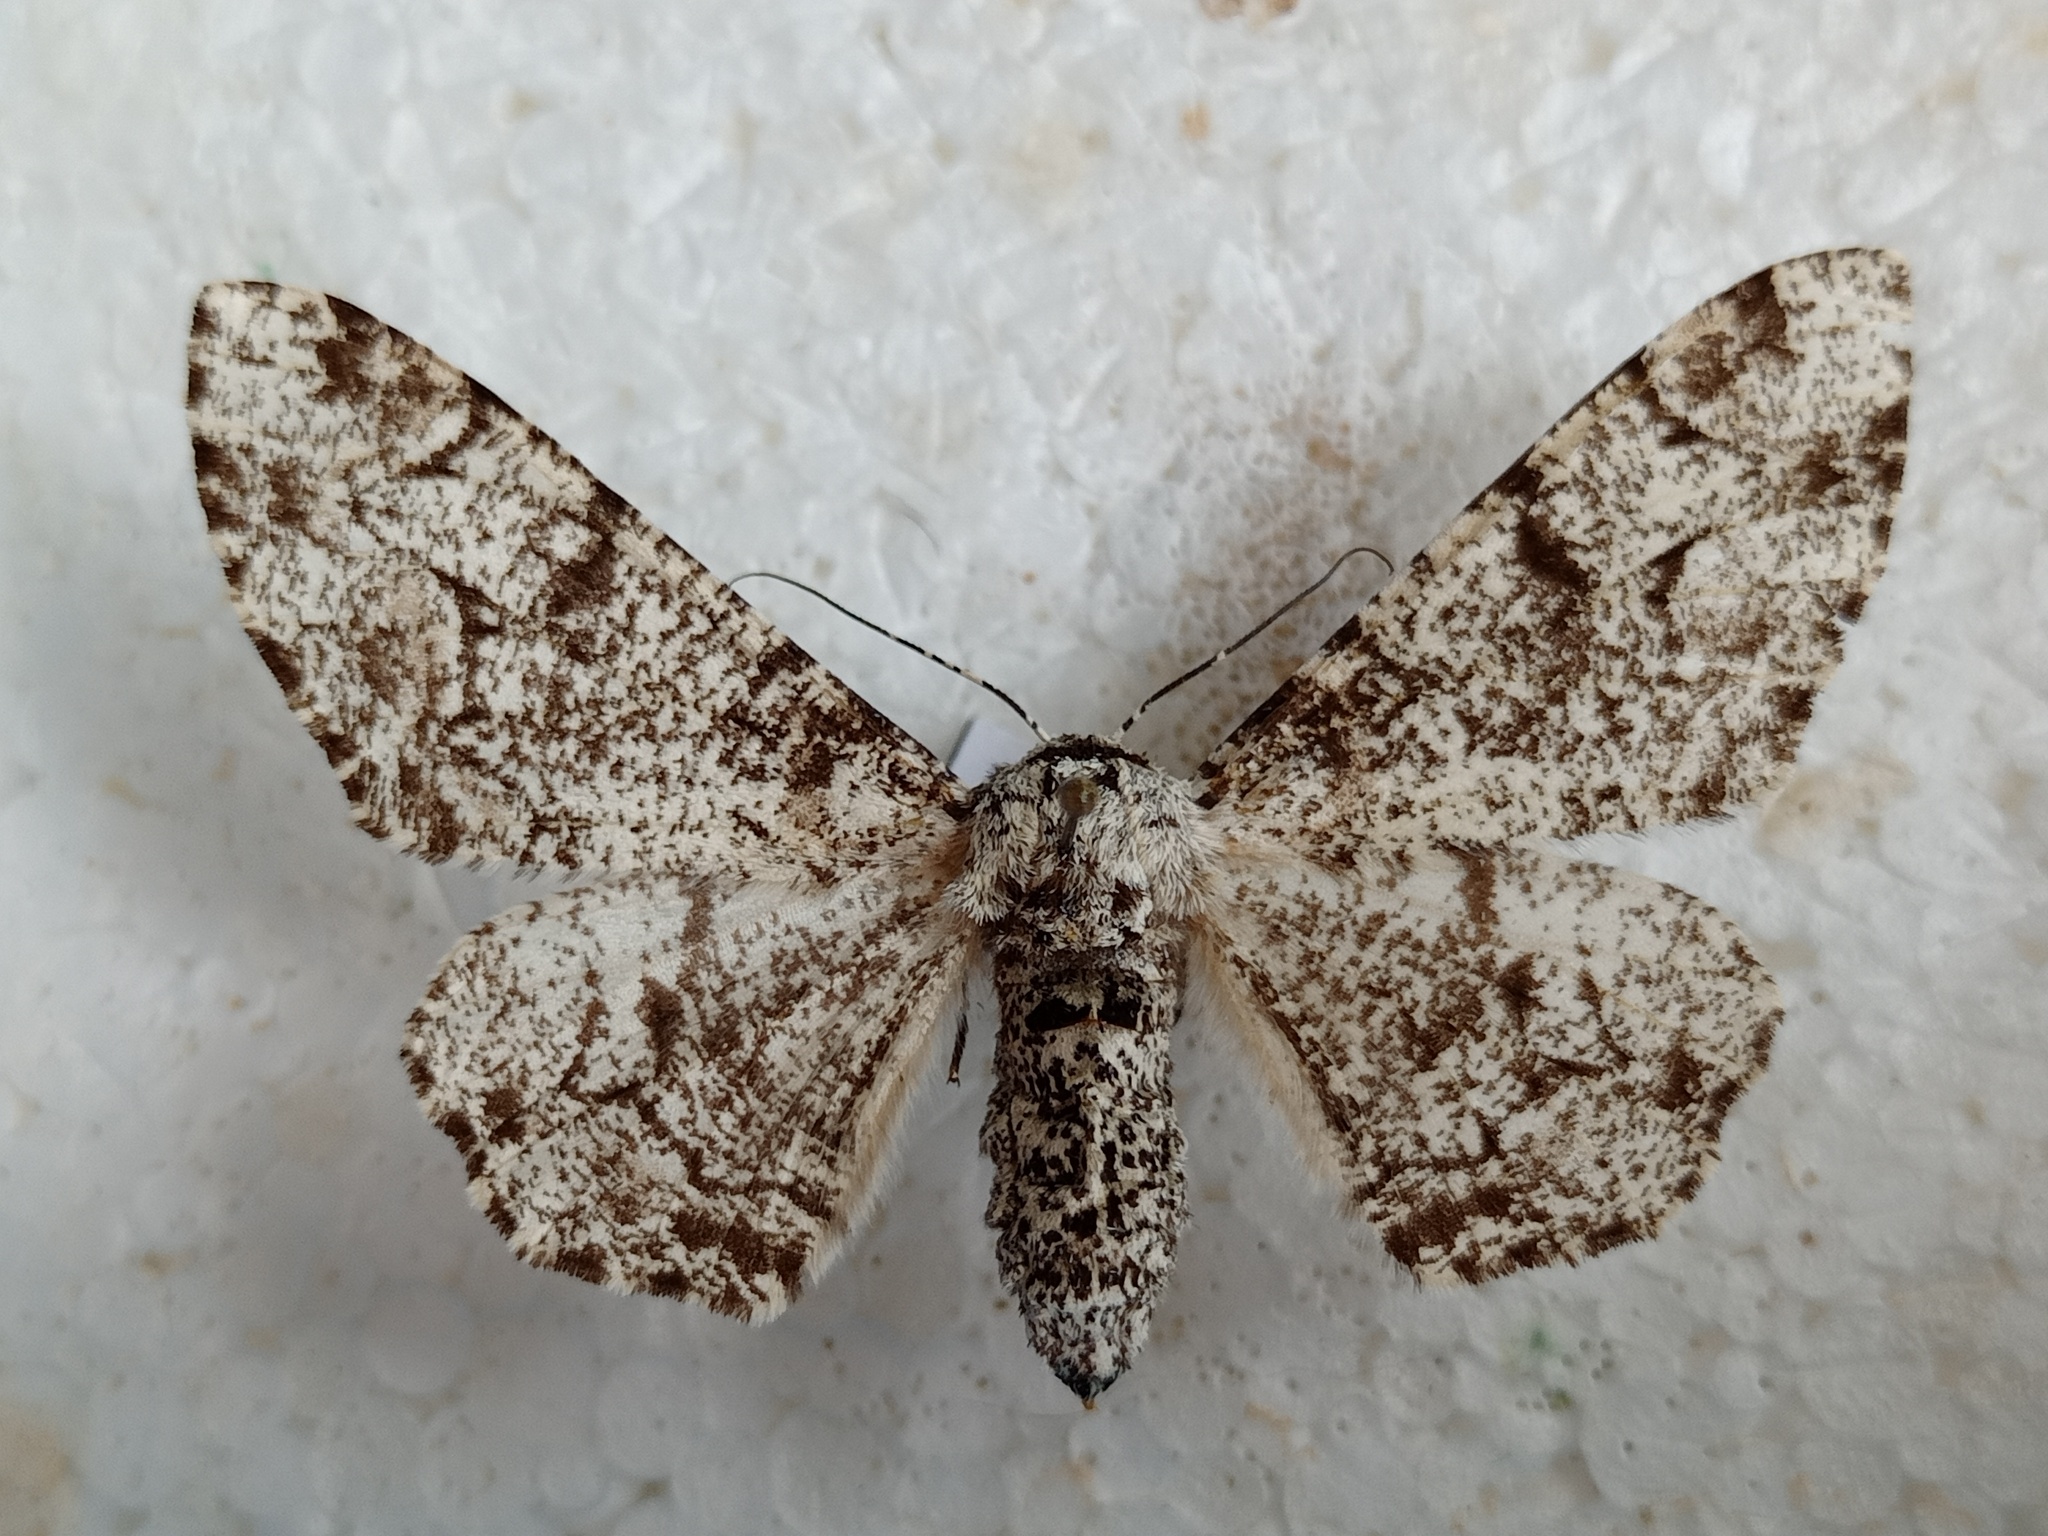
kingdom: Animalia
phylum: Arthropoda
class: Insecta
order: Lepidoptera
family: Geometridae
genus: Biston
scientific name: Biston betularia
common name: Peppered moth
